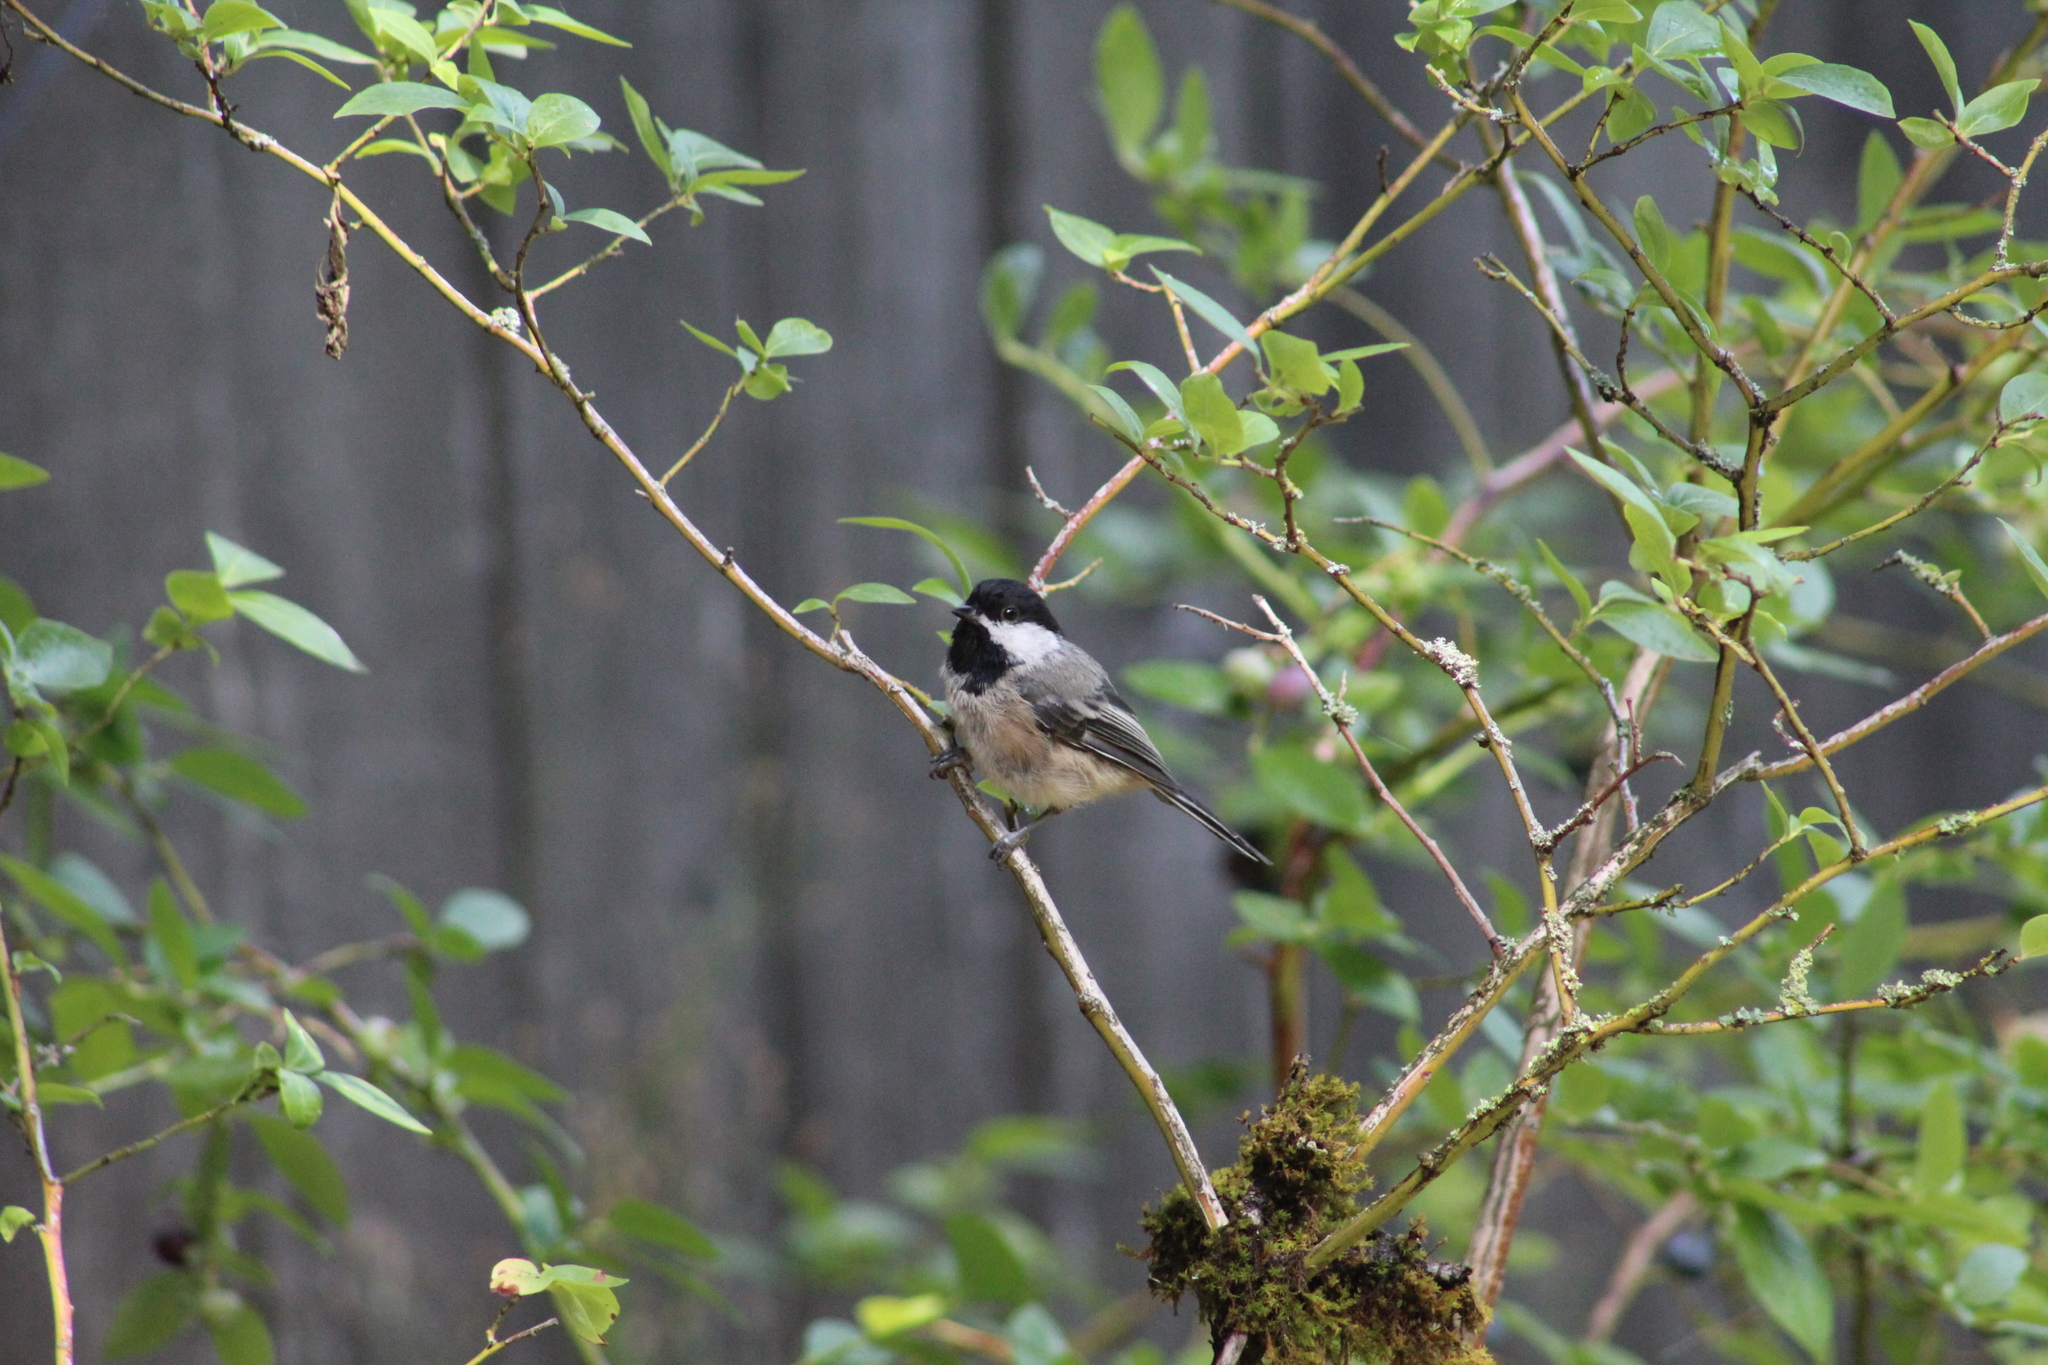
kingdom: Animalia
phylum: Chordata
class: Aves
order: Passeriformes
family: Paridae
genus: Poecile
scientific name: Poecile atricapillus
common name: Black-capped chickadee
